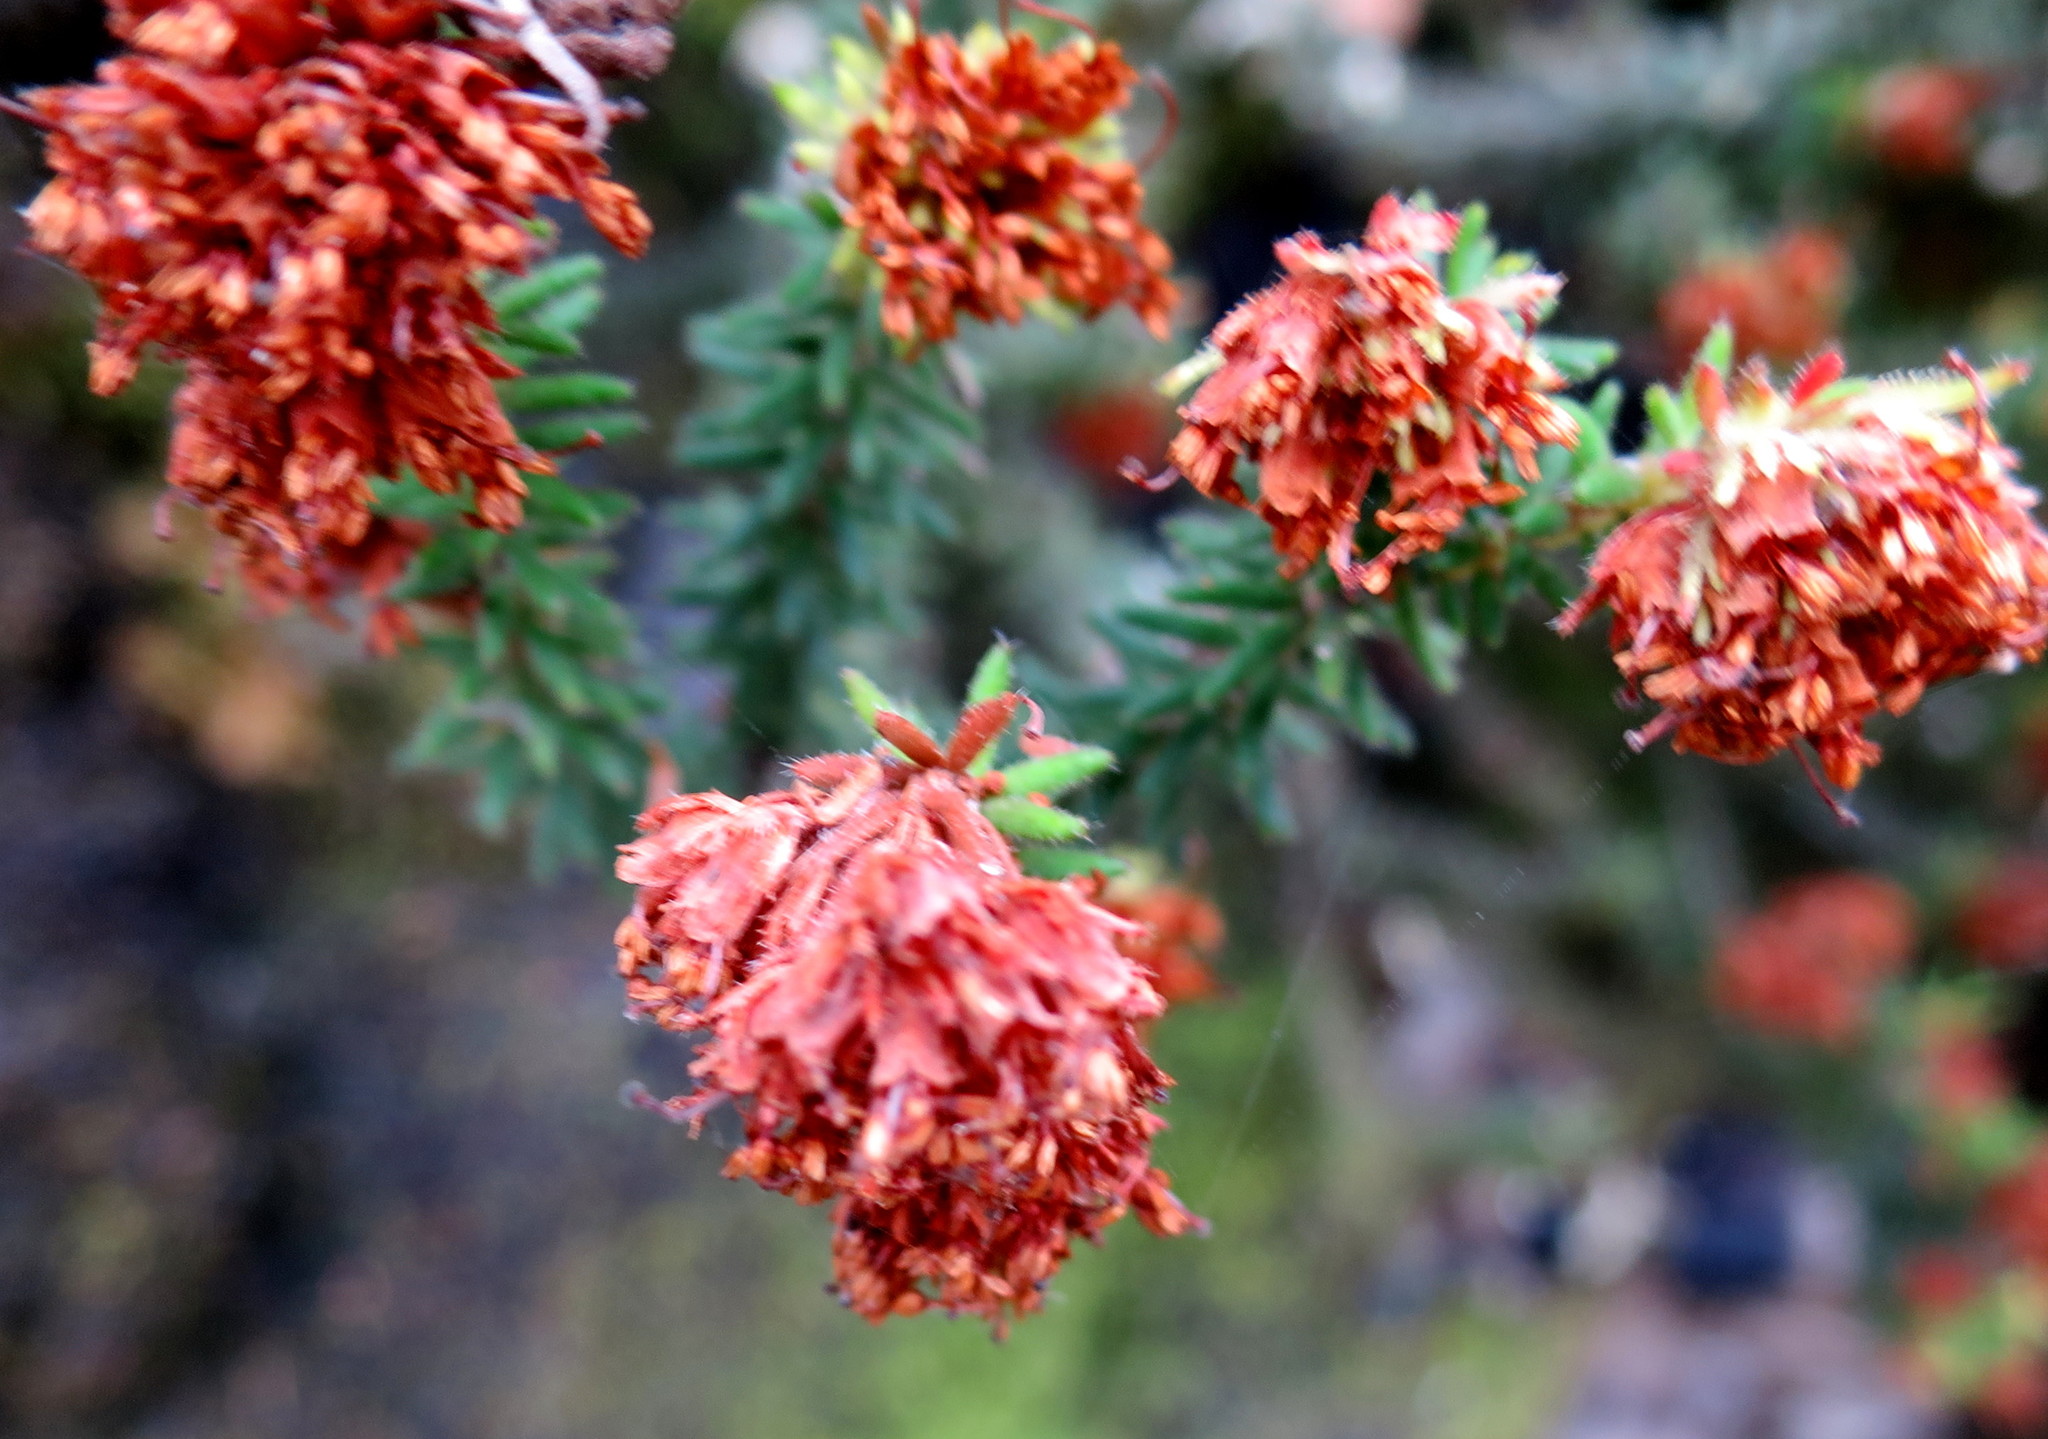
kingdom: Plantae
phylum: Tracheophyta
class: Magnoliopsida
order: Ericales
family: Ericaceae
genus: Erica
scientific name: Erica stylaris
